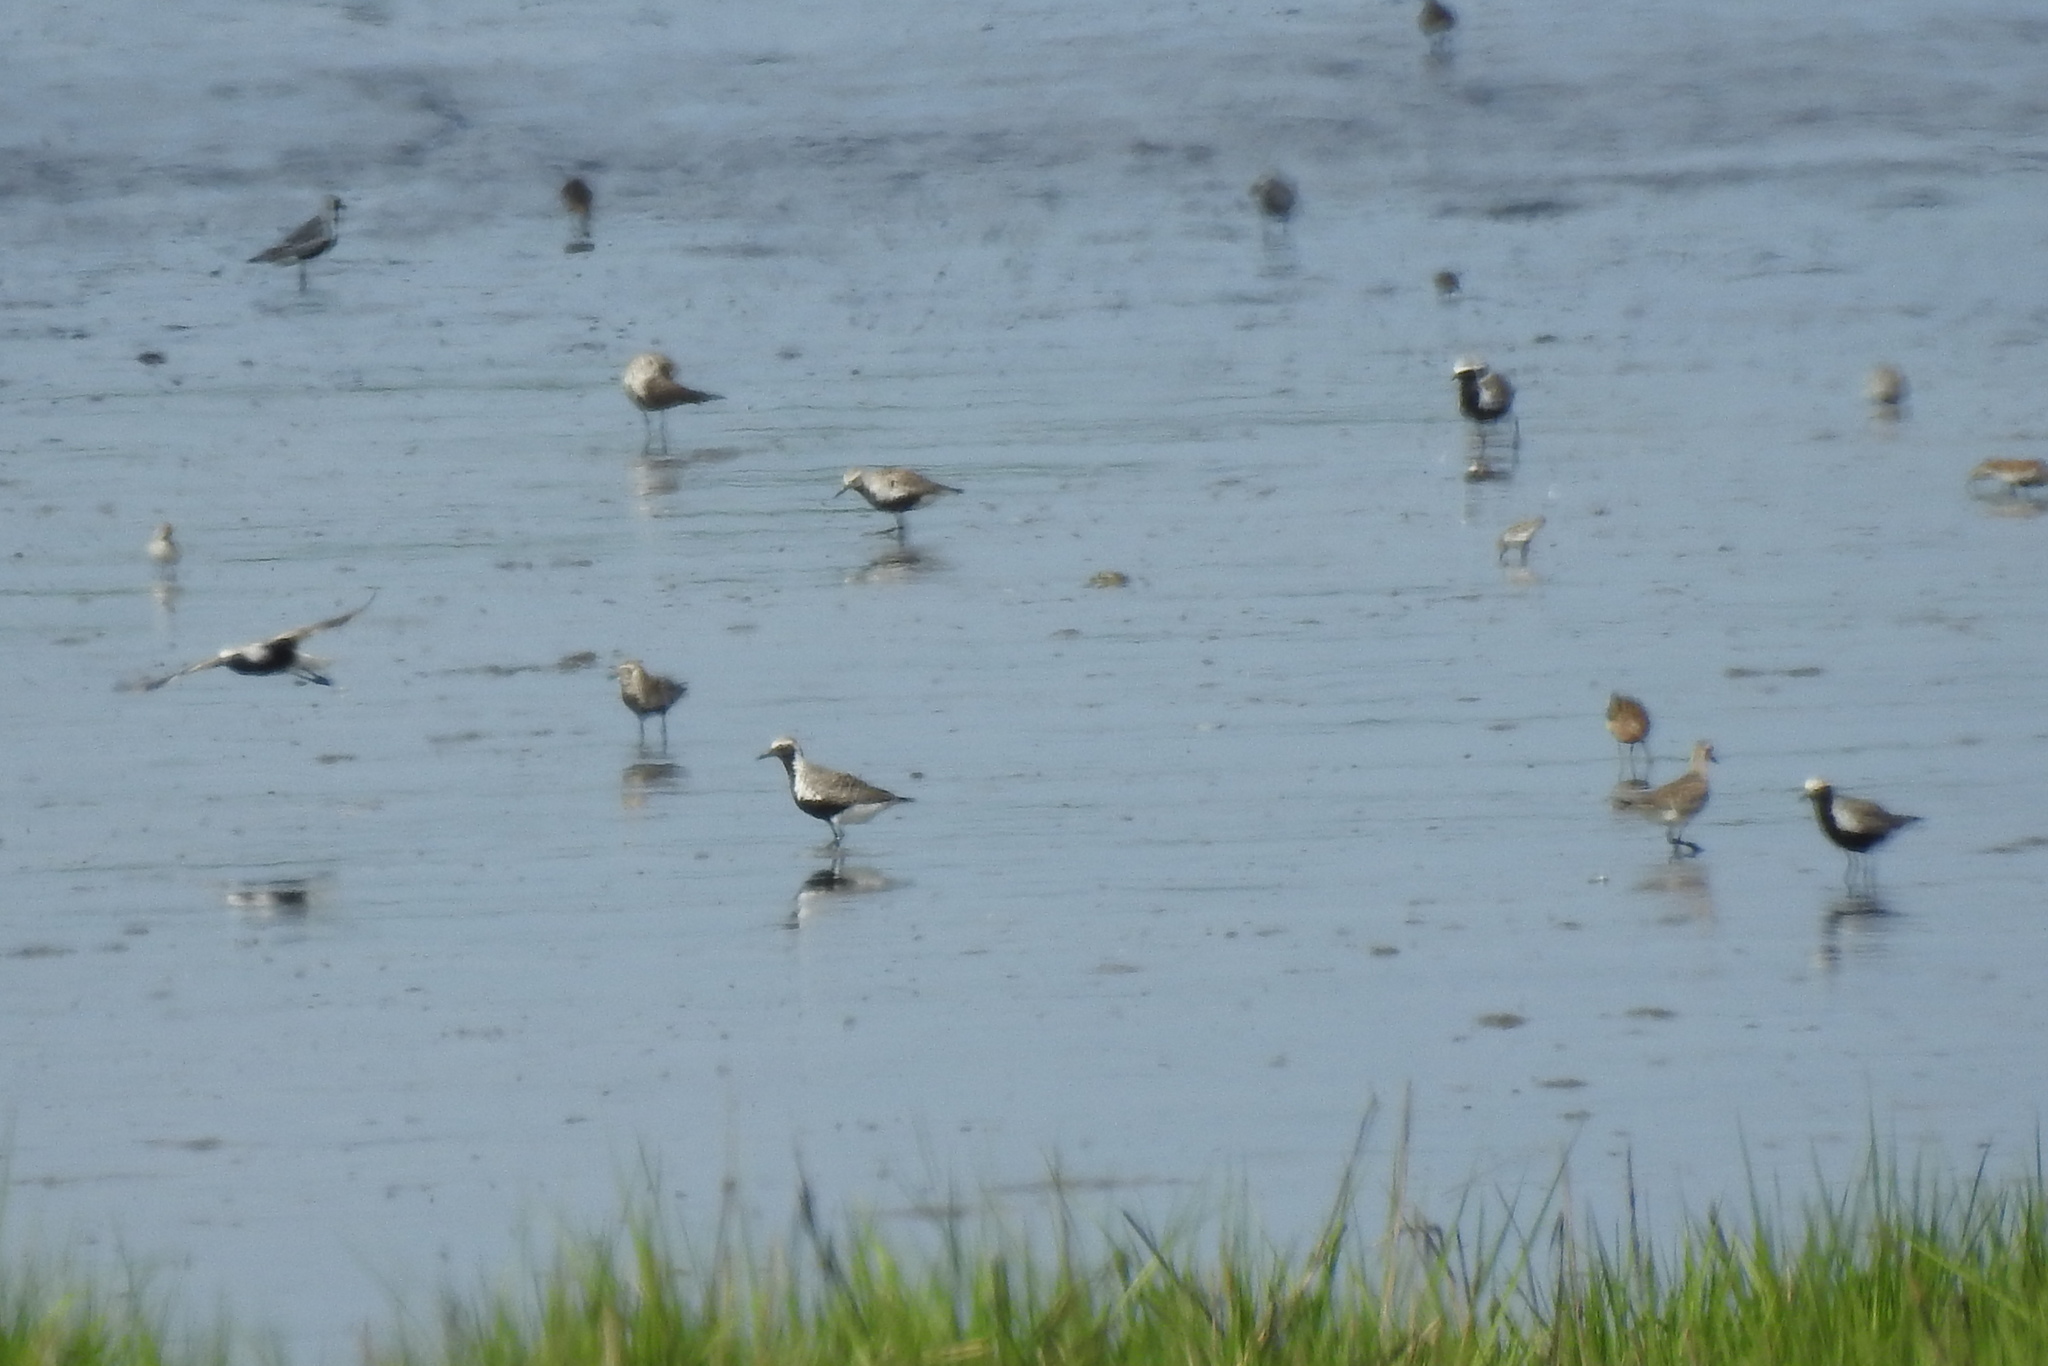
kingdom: Animalia
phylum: Chordata
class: Aves
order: Charadriiformes
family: Charadriidae
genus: Pluvialis
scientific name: Pluvialis dominica
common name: American golden plover
